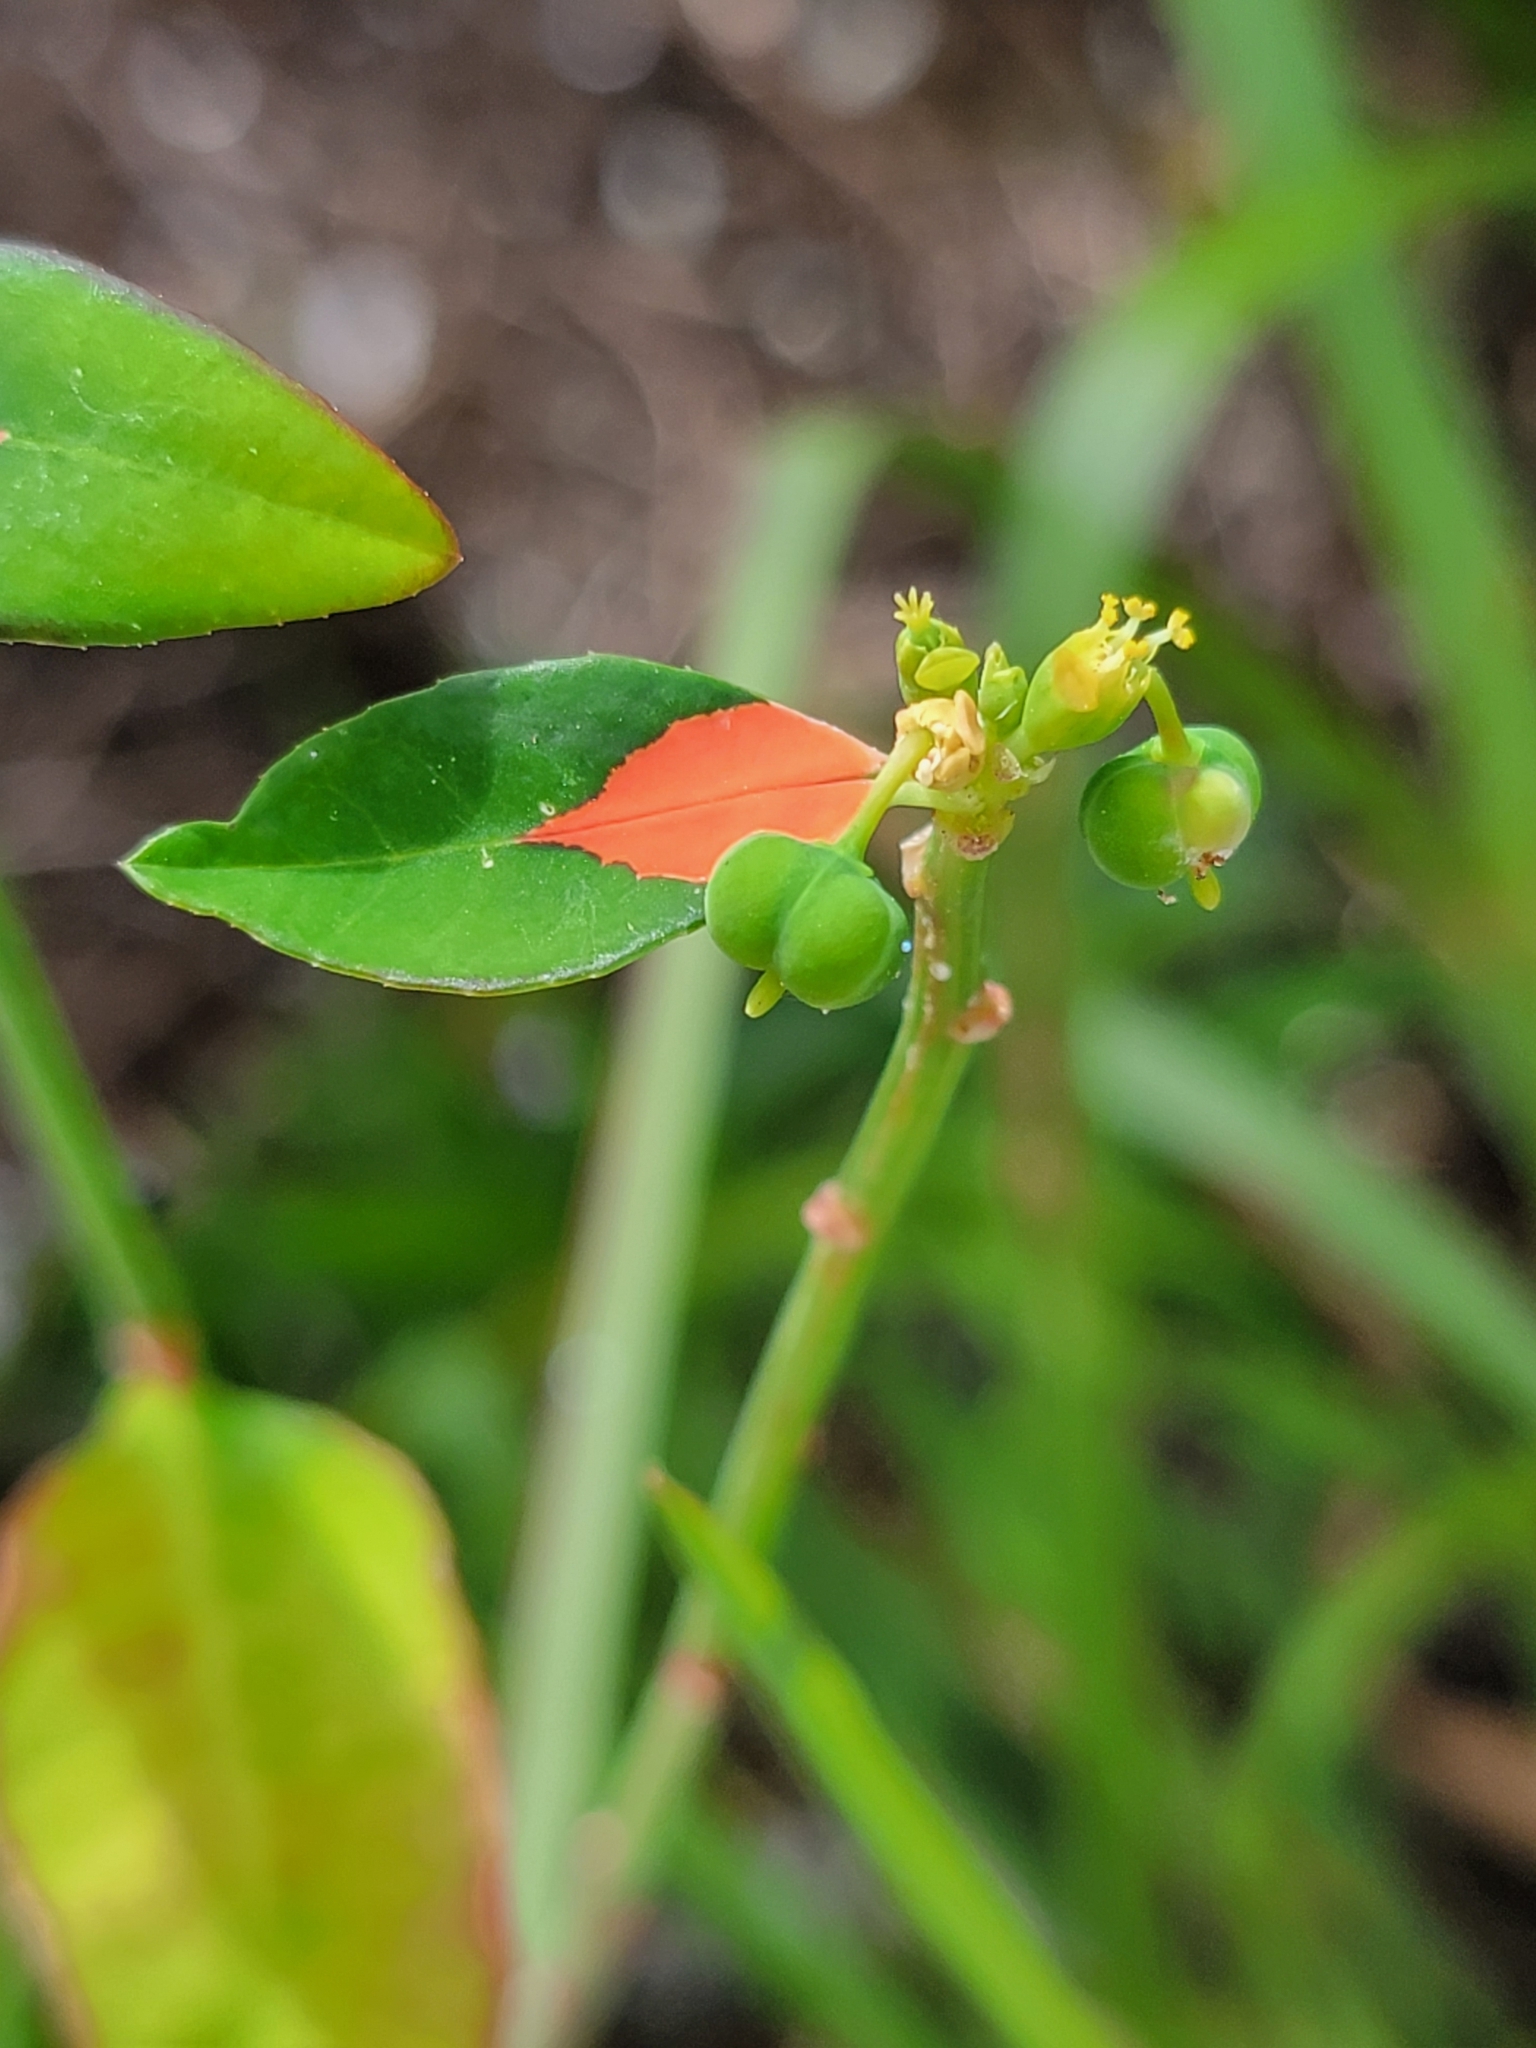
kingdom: Plantae
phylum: Tracheophyta
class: Magnoliopsida
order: Malpighiales
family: Euphorbiaceae
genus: Euphorbia
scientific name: Euphorbia heterophylla
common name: Mexican fireplant
